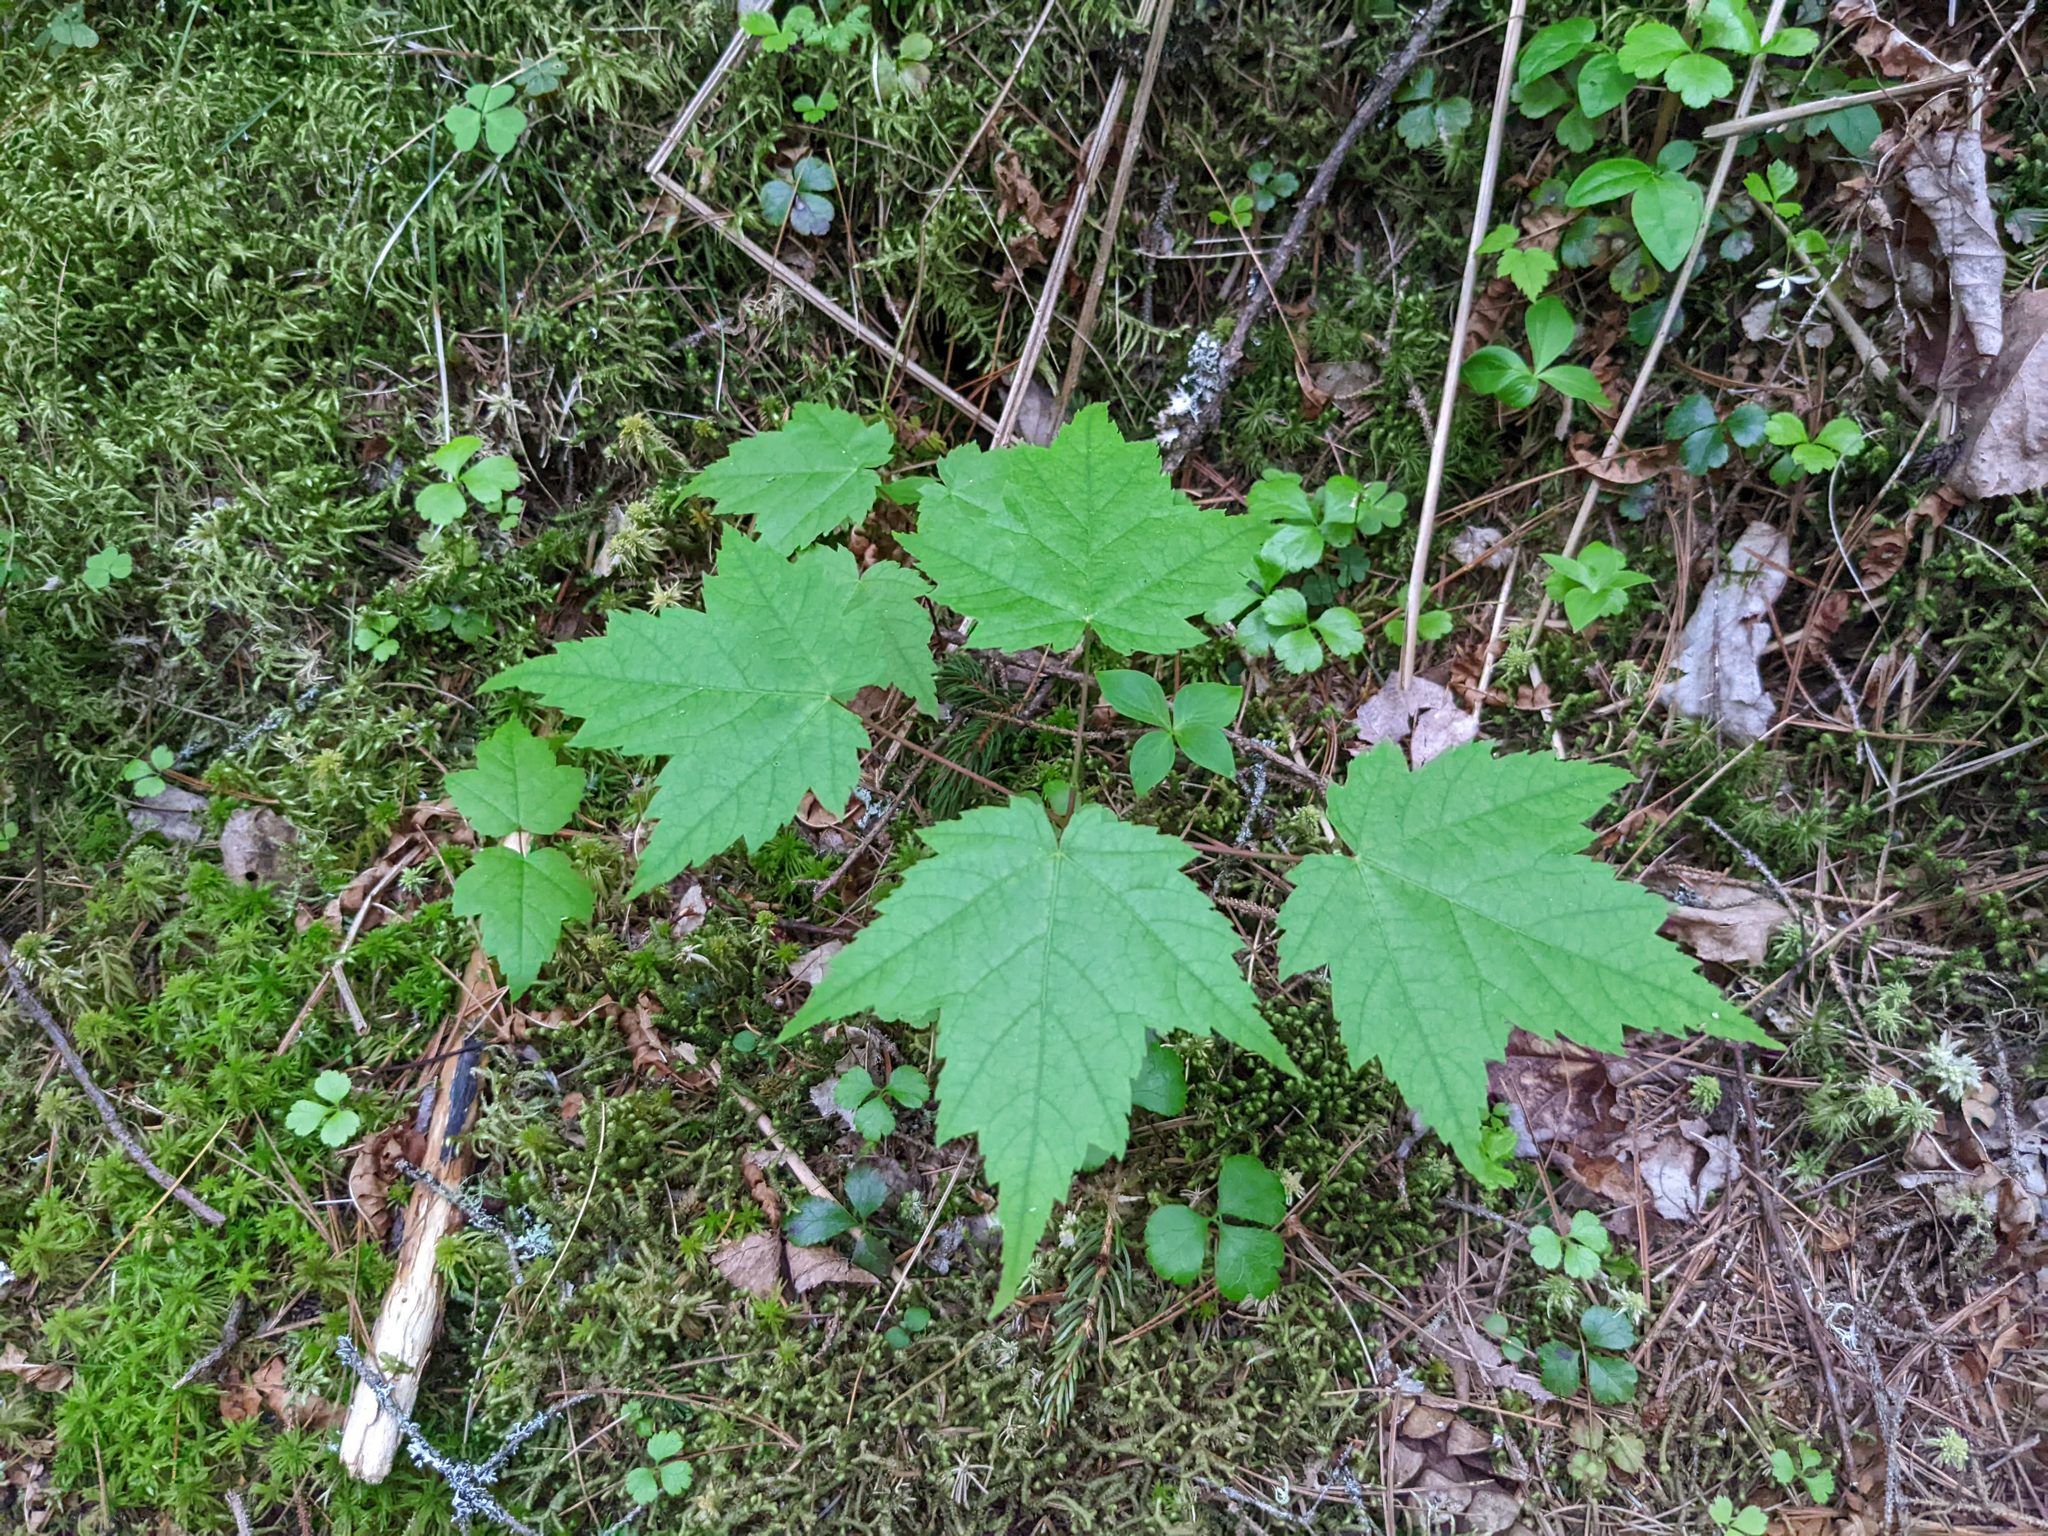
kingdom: Plantae
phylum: Tracheophyta
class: Magnoliopsida
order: Sapindales
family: Sapindaceae
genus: Acer
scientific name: Acer spicatum
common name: Mountain maple
